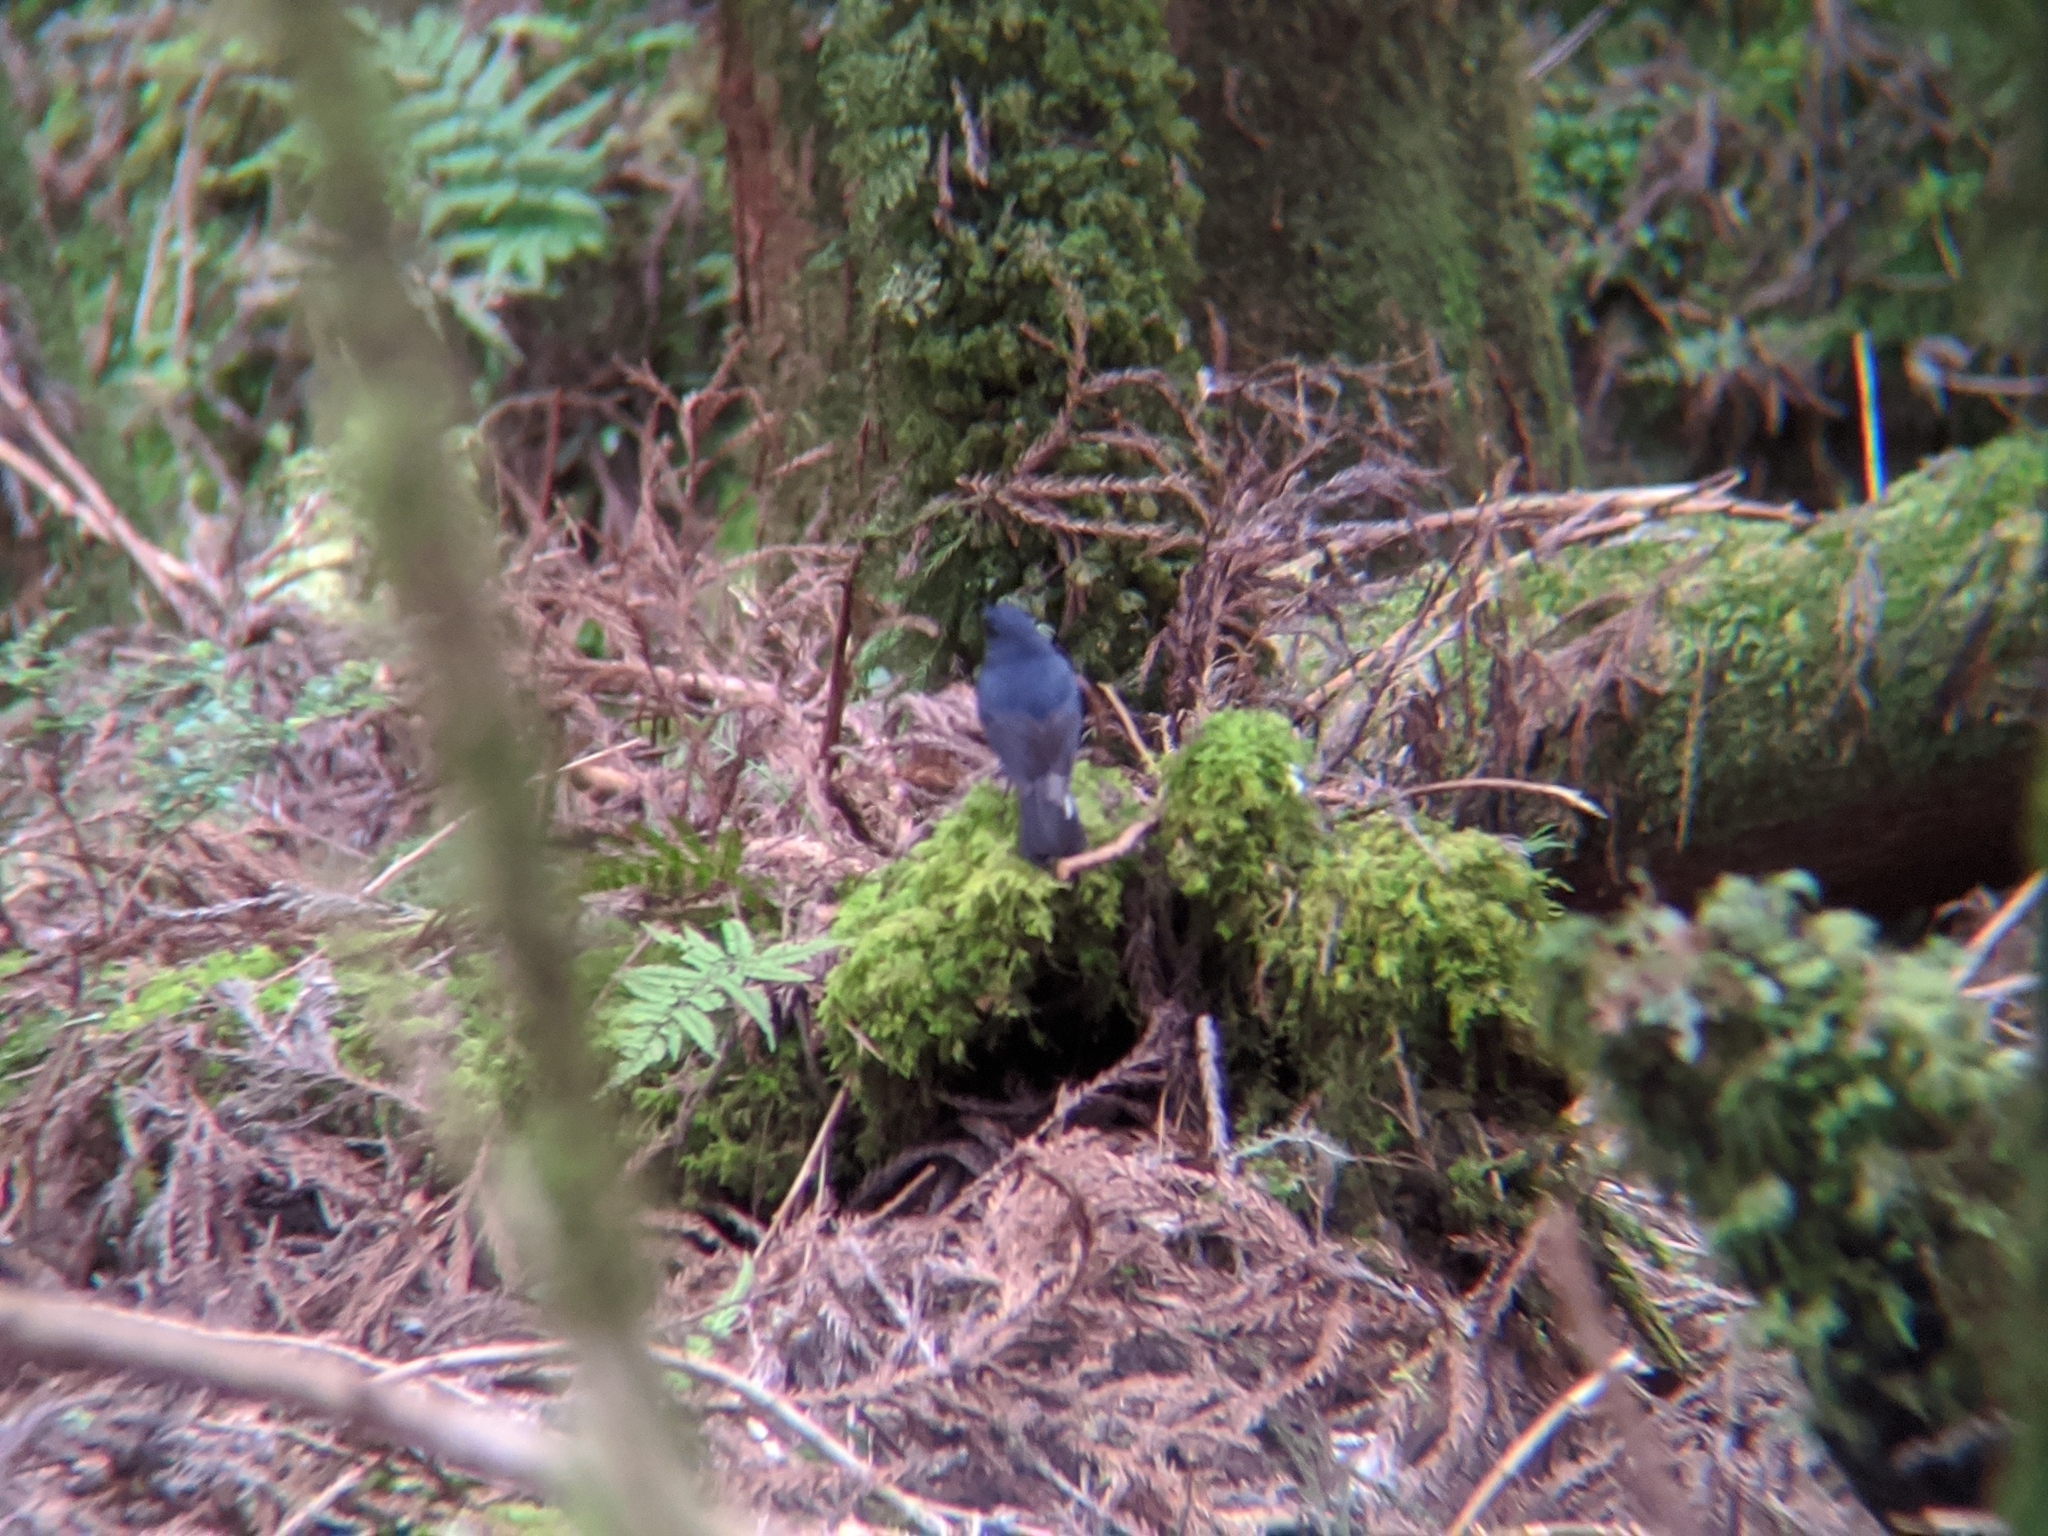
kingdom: Animalia
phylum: Chordata
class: Aves
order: Passeriformes
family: Muscicapidae
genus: Myiomela
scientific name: Myiomela leucura
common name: White-tailed robin
